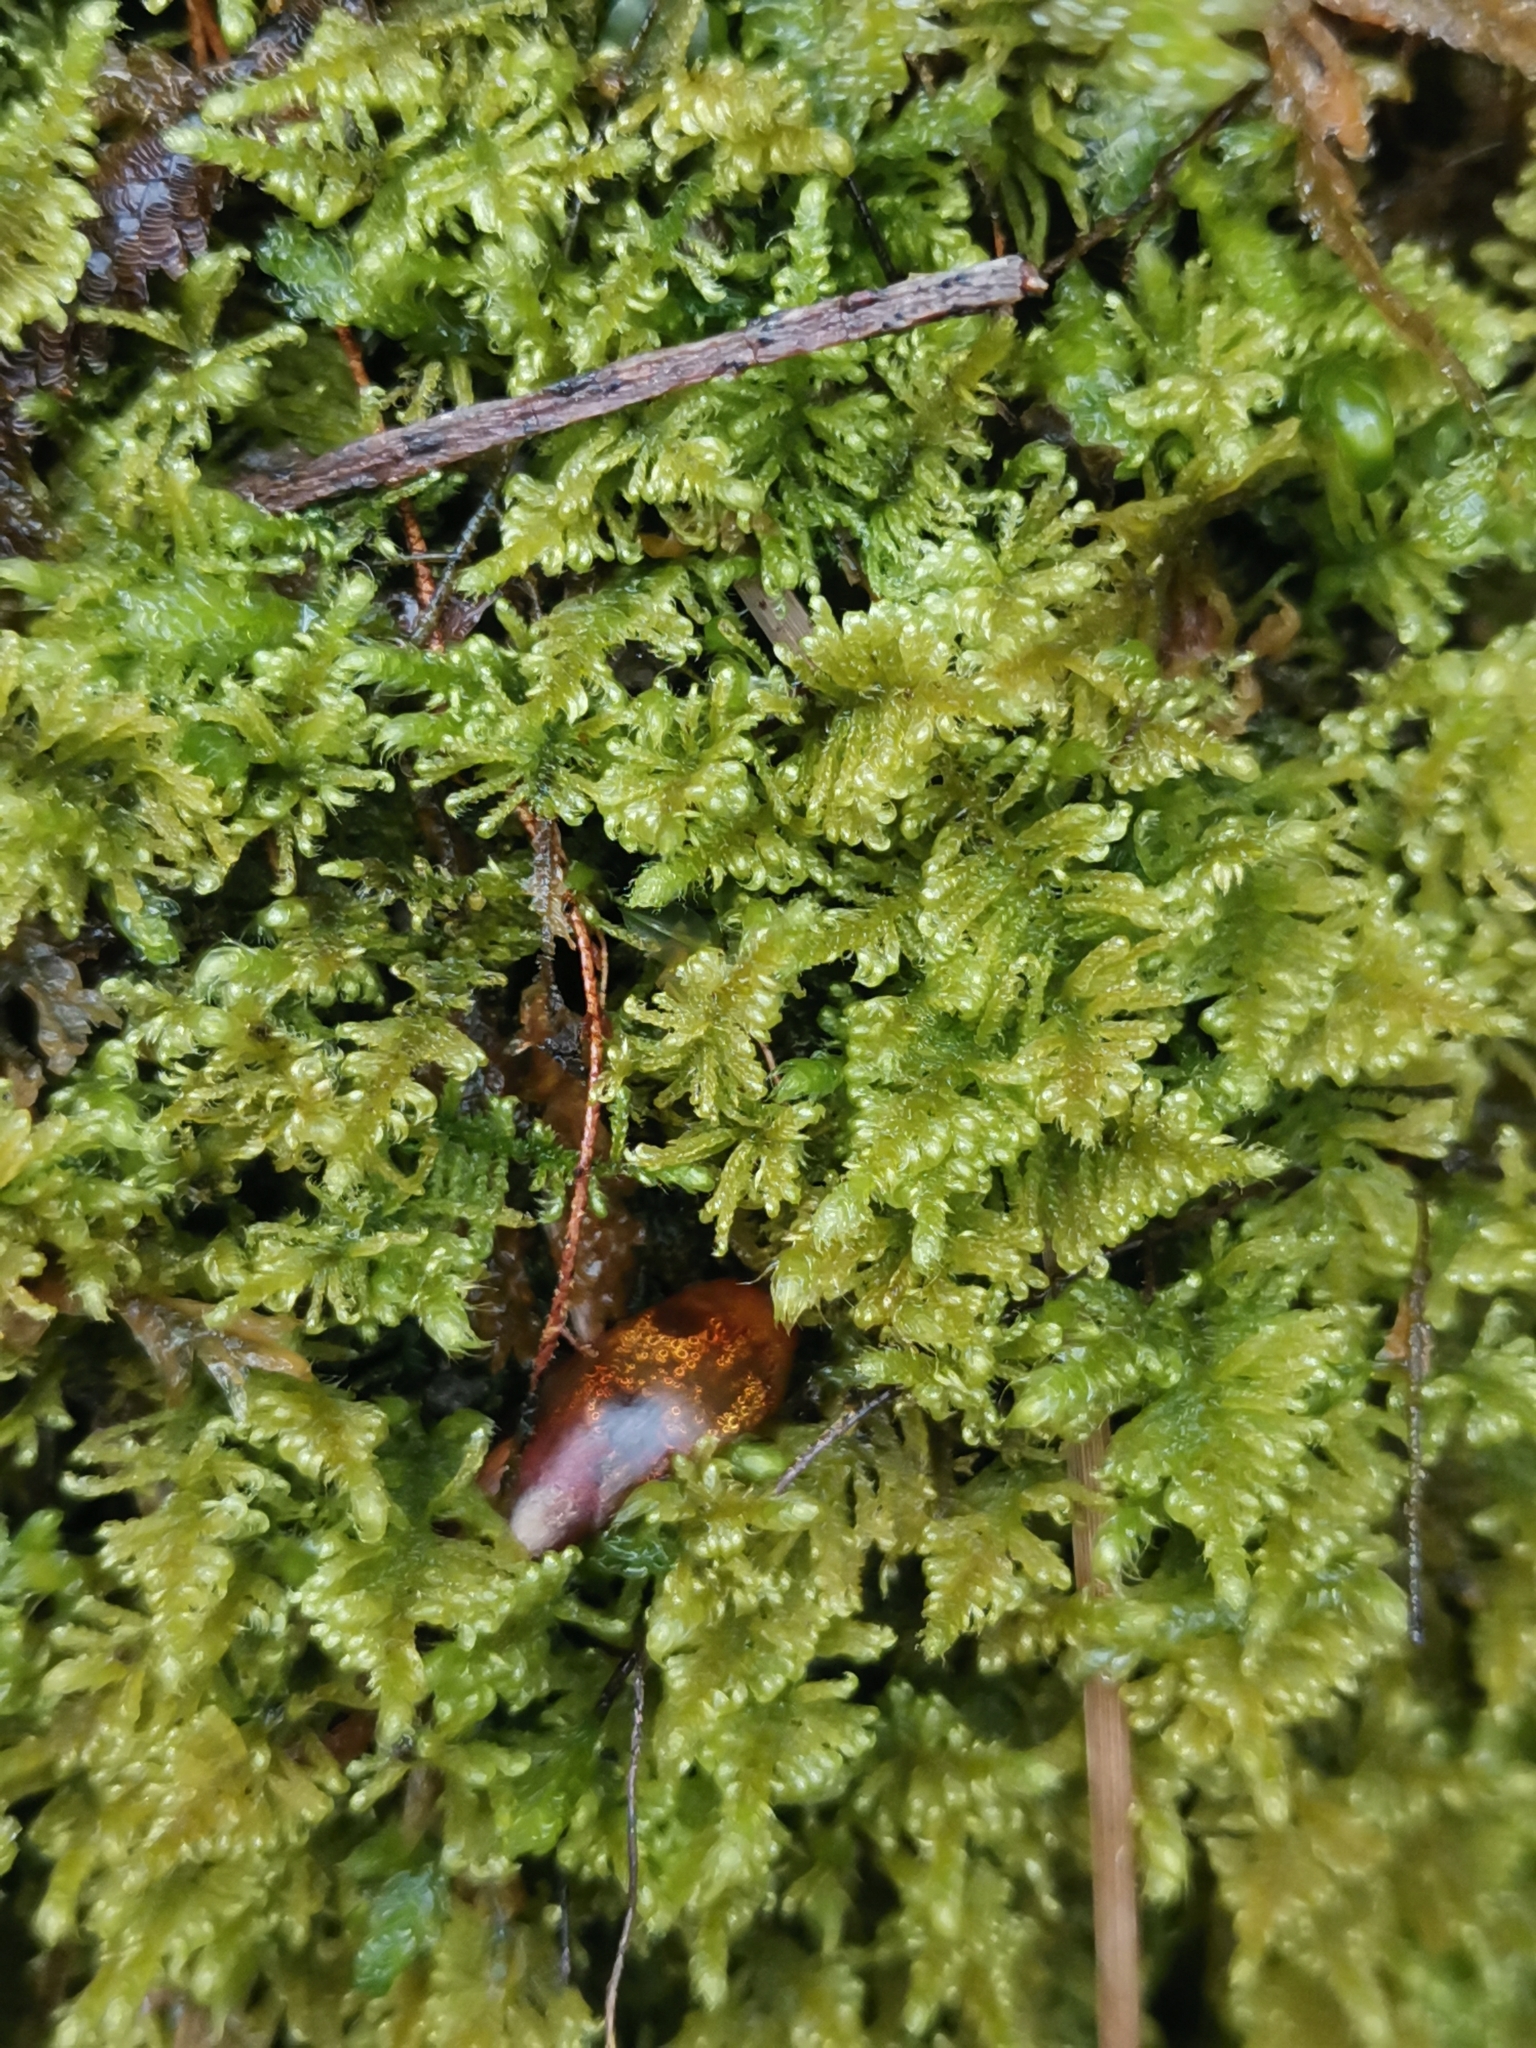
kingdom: Plantae
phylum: Bryophyta
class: Bryopsida
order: Hypnales
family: Myuriaceae
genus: Ctenidium
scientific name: Ctenidium molluscum
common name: Chalk comb-moss
